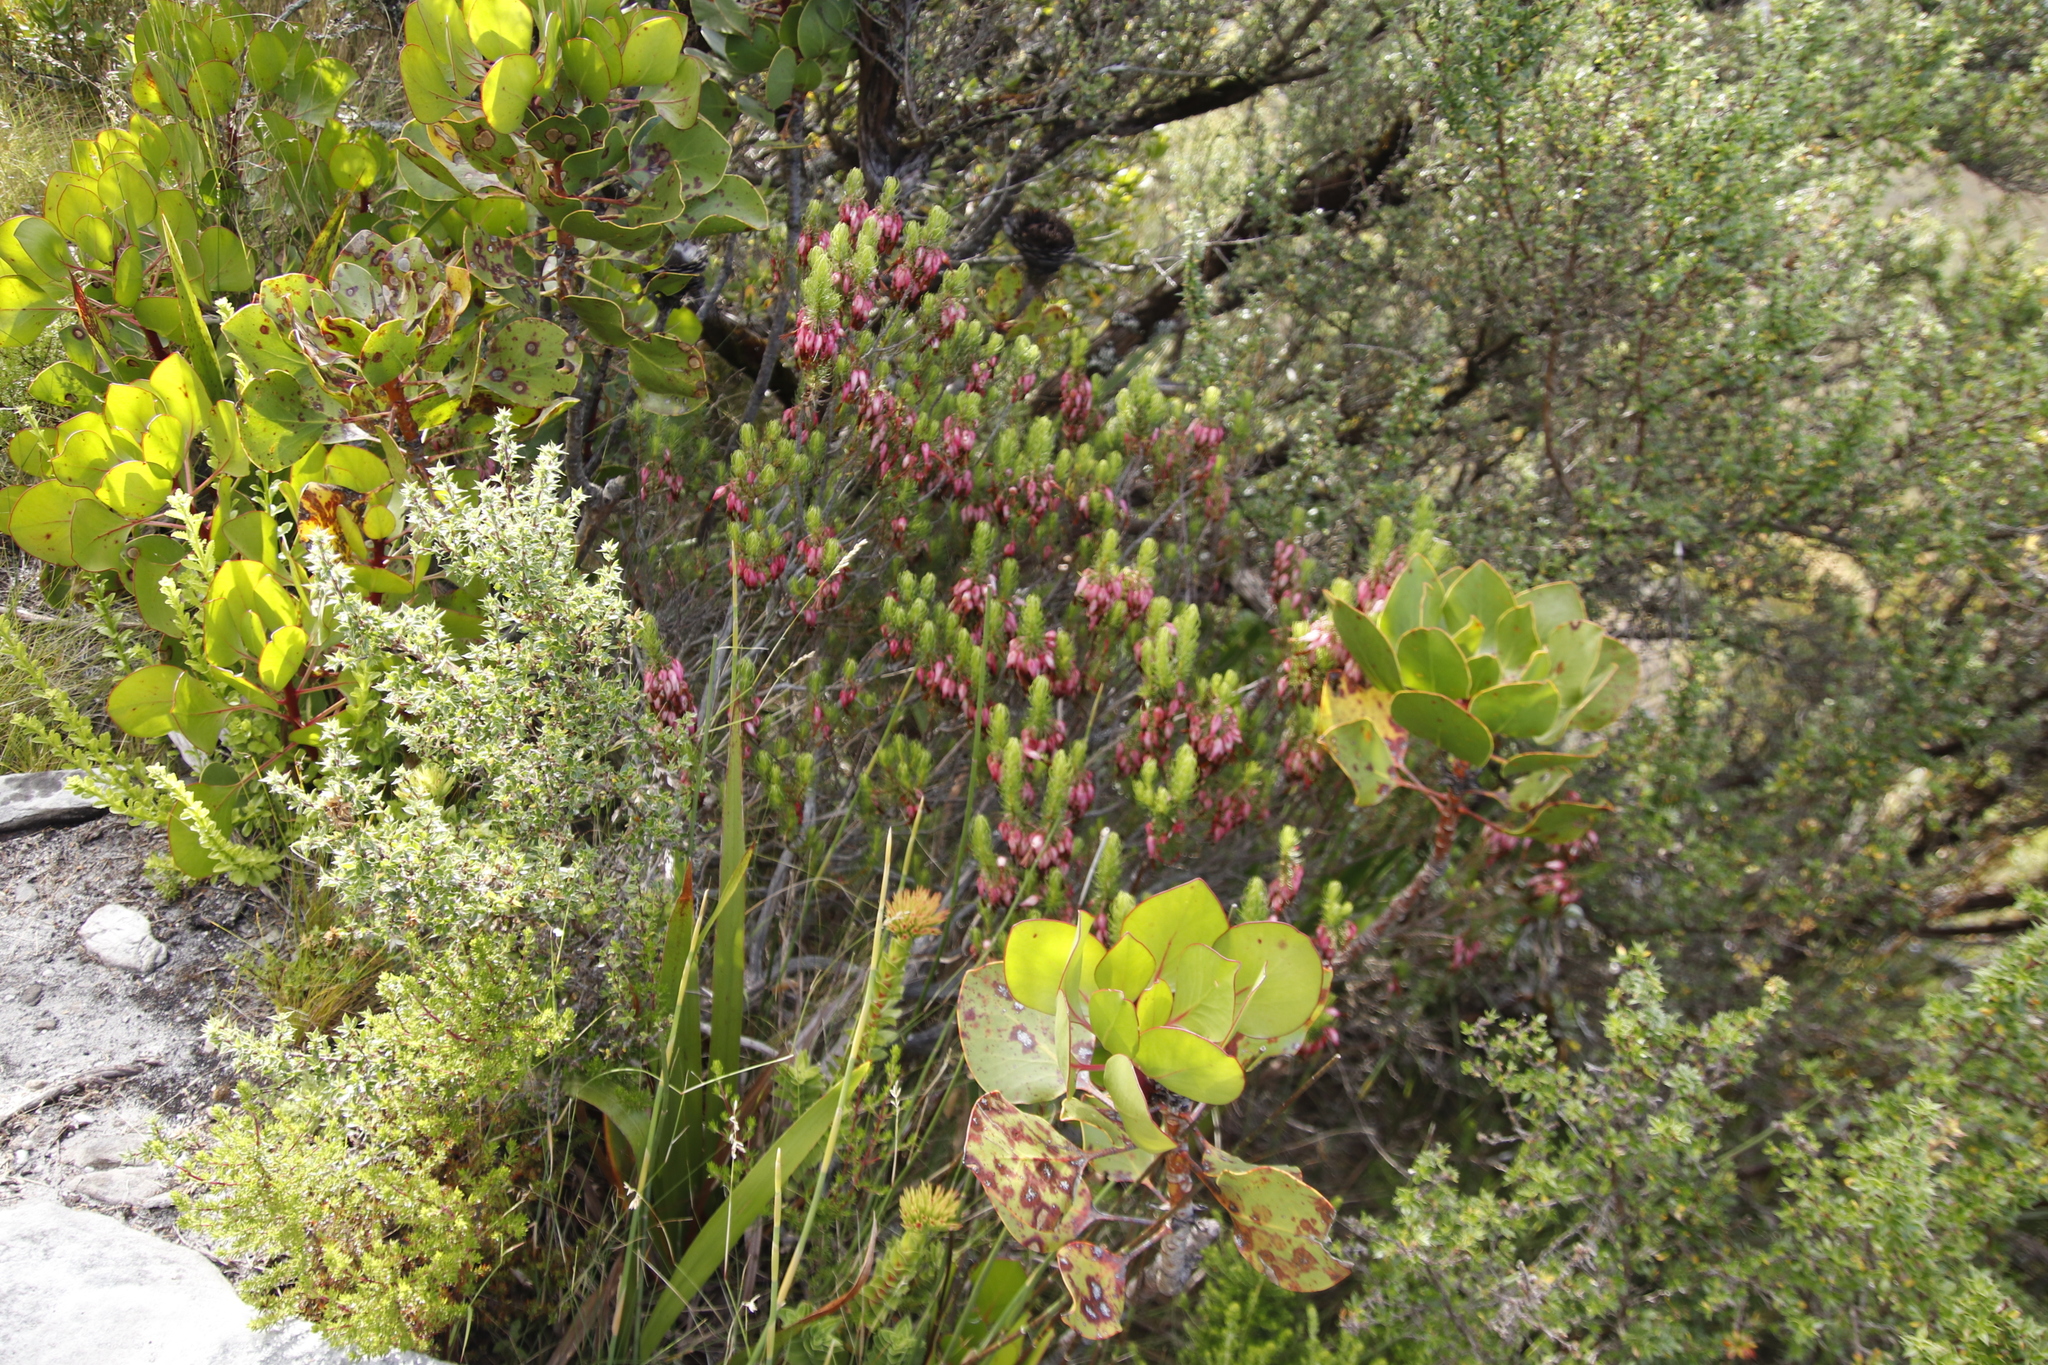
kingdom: Plantae
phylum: Tracheophyta
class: Magnoliopsida
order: Proteales
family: Proteaceae
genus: Protea
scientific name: Protea cynaroides
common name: King protea
